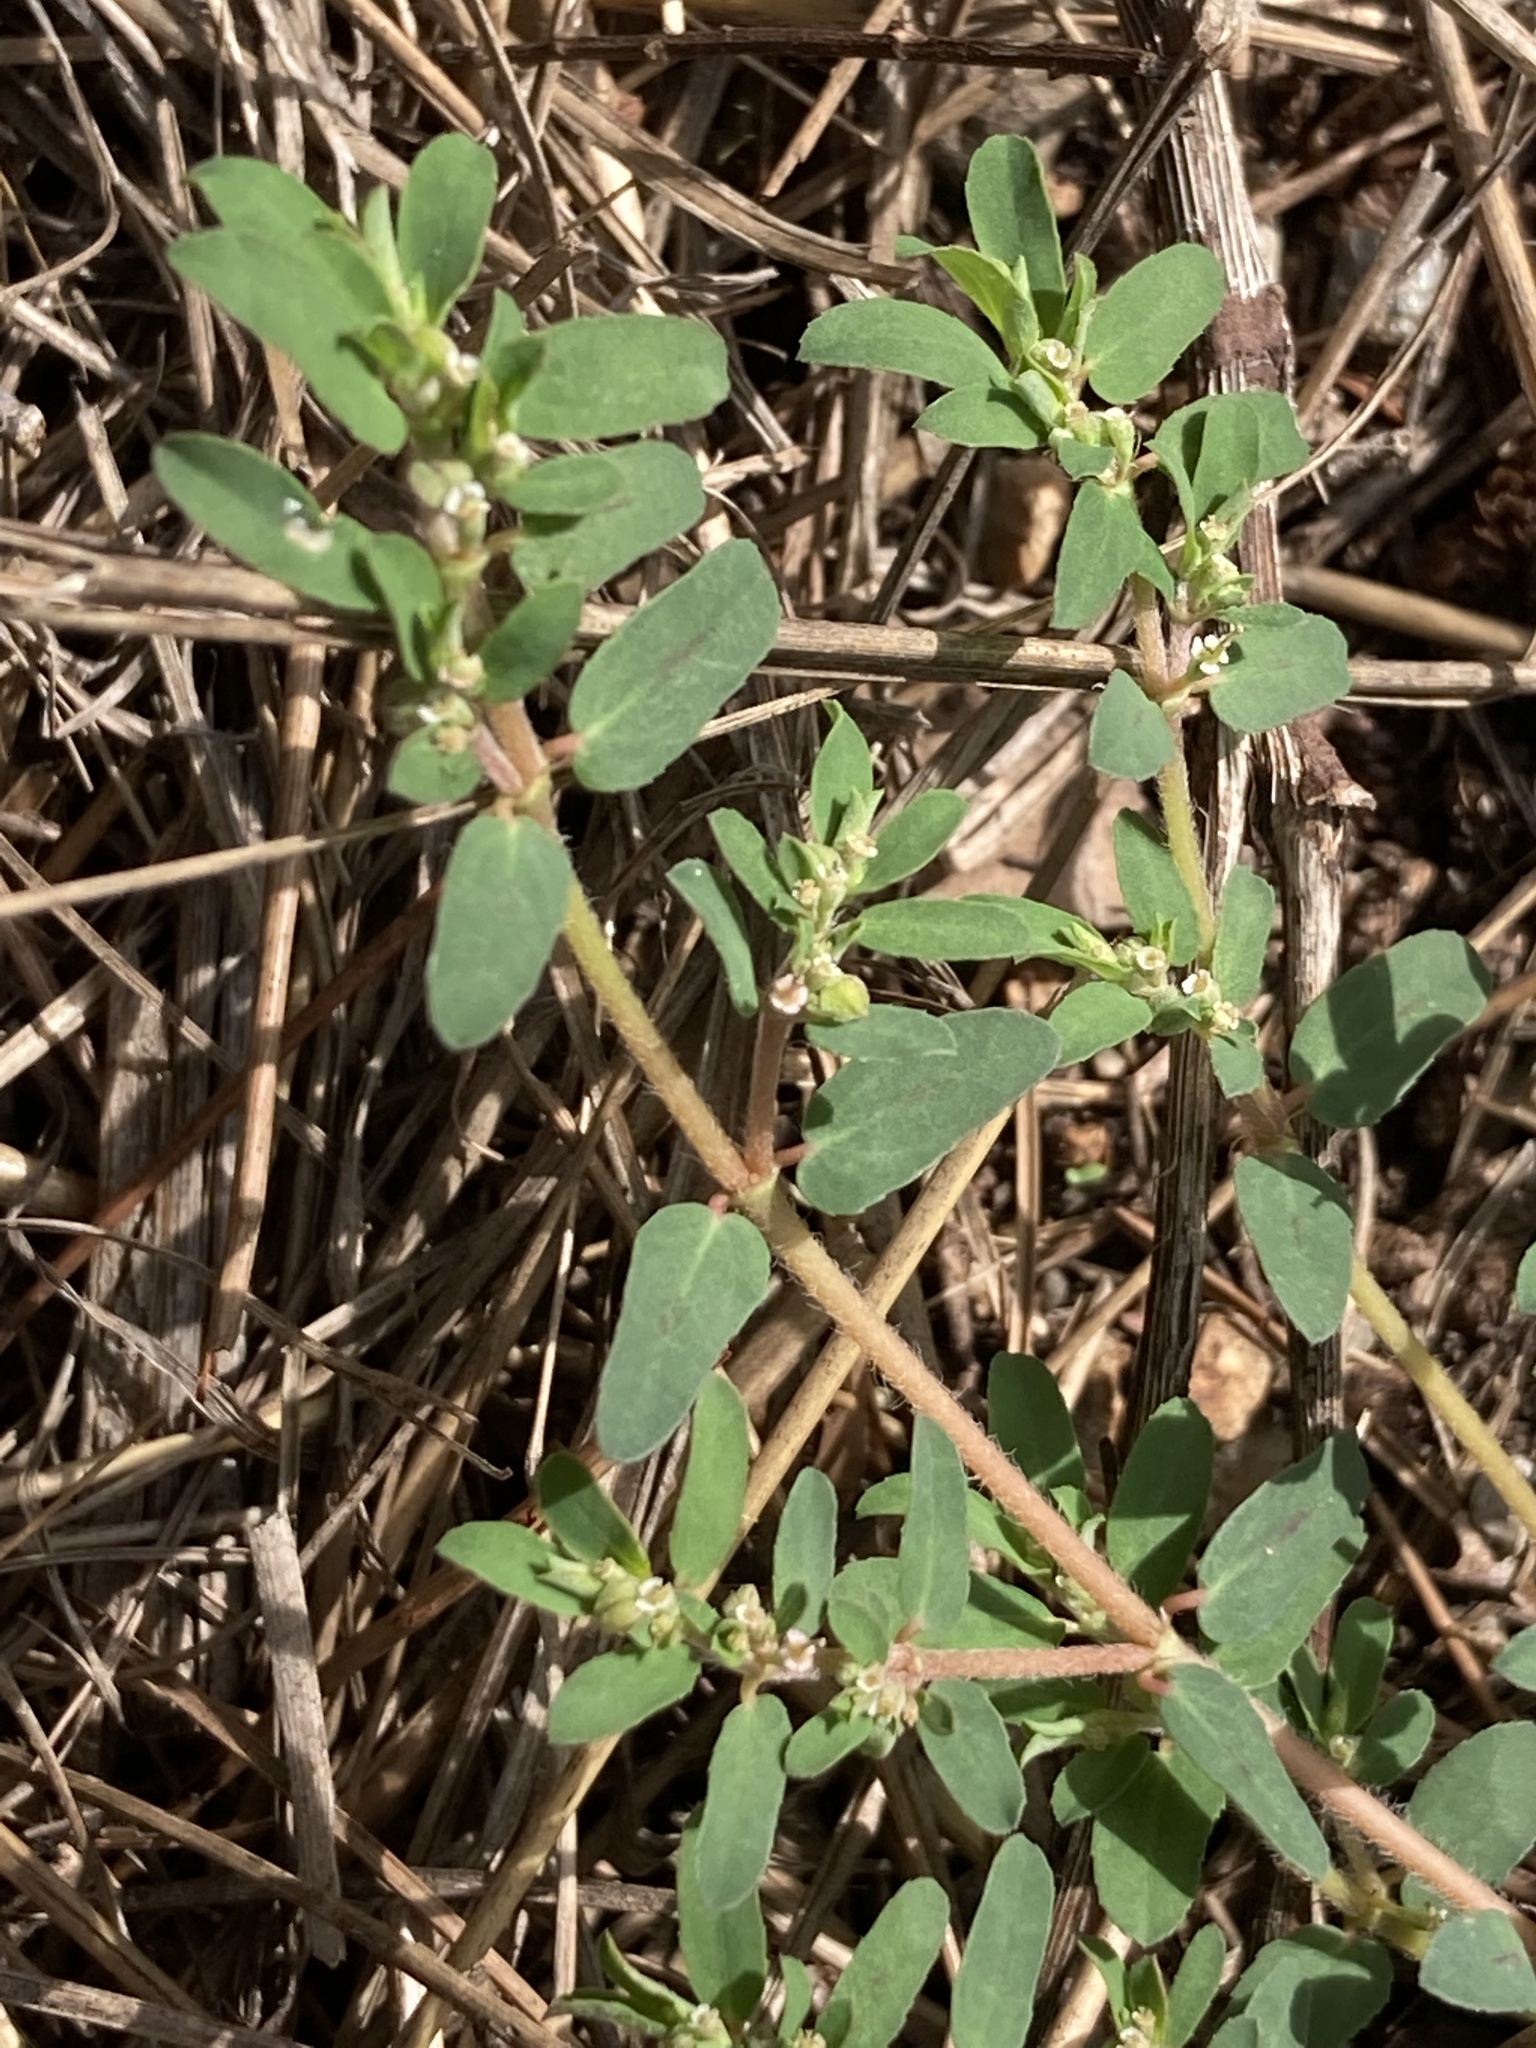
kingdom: Plantae
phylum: Tracheophyta
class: Magnoliopsida
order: Malpighiales
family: Euphorbiaceae
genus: Euphorbia
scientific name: Euphorbia maculata
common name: Spotted spurge
